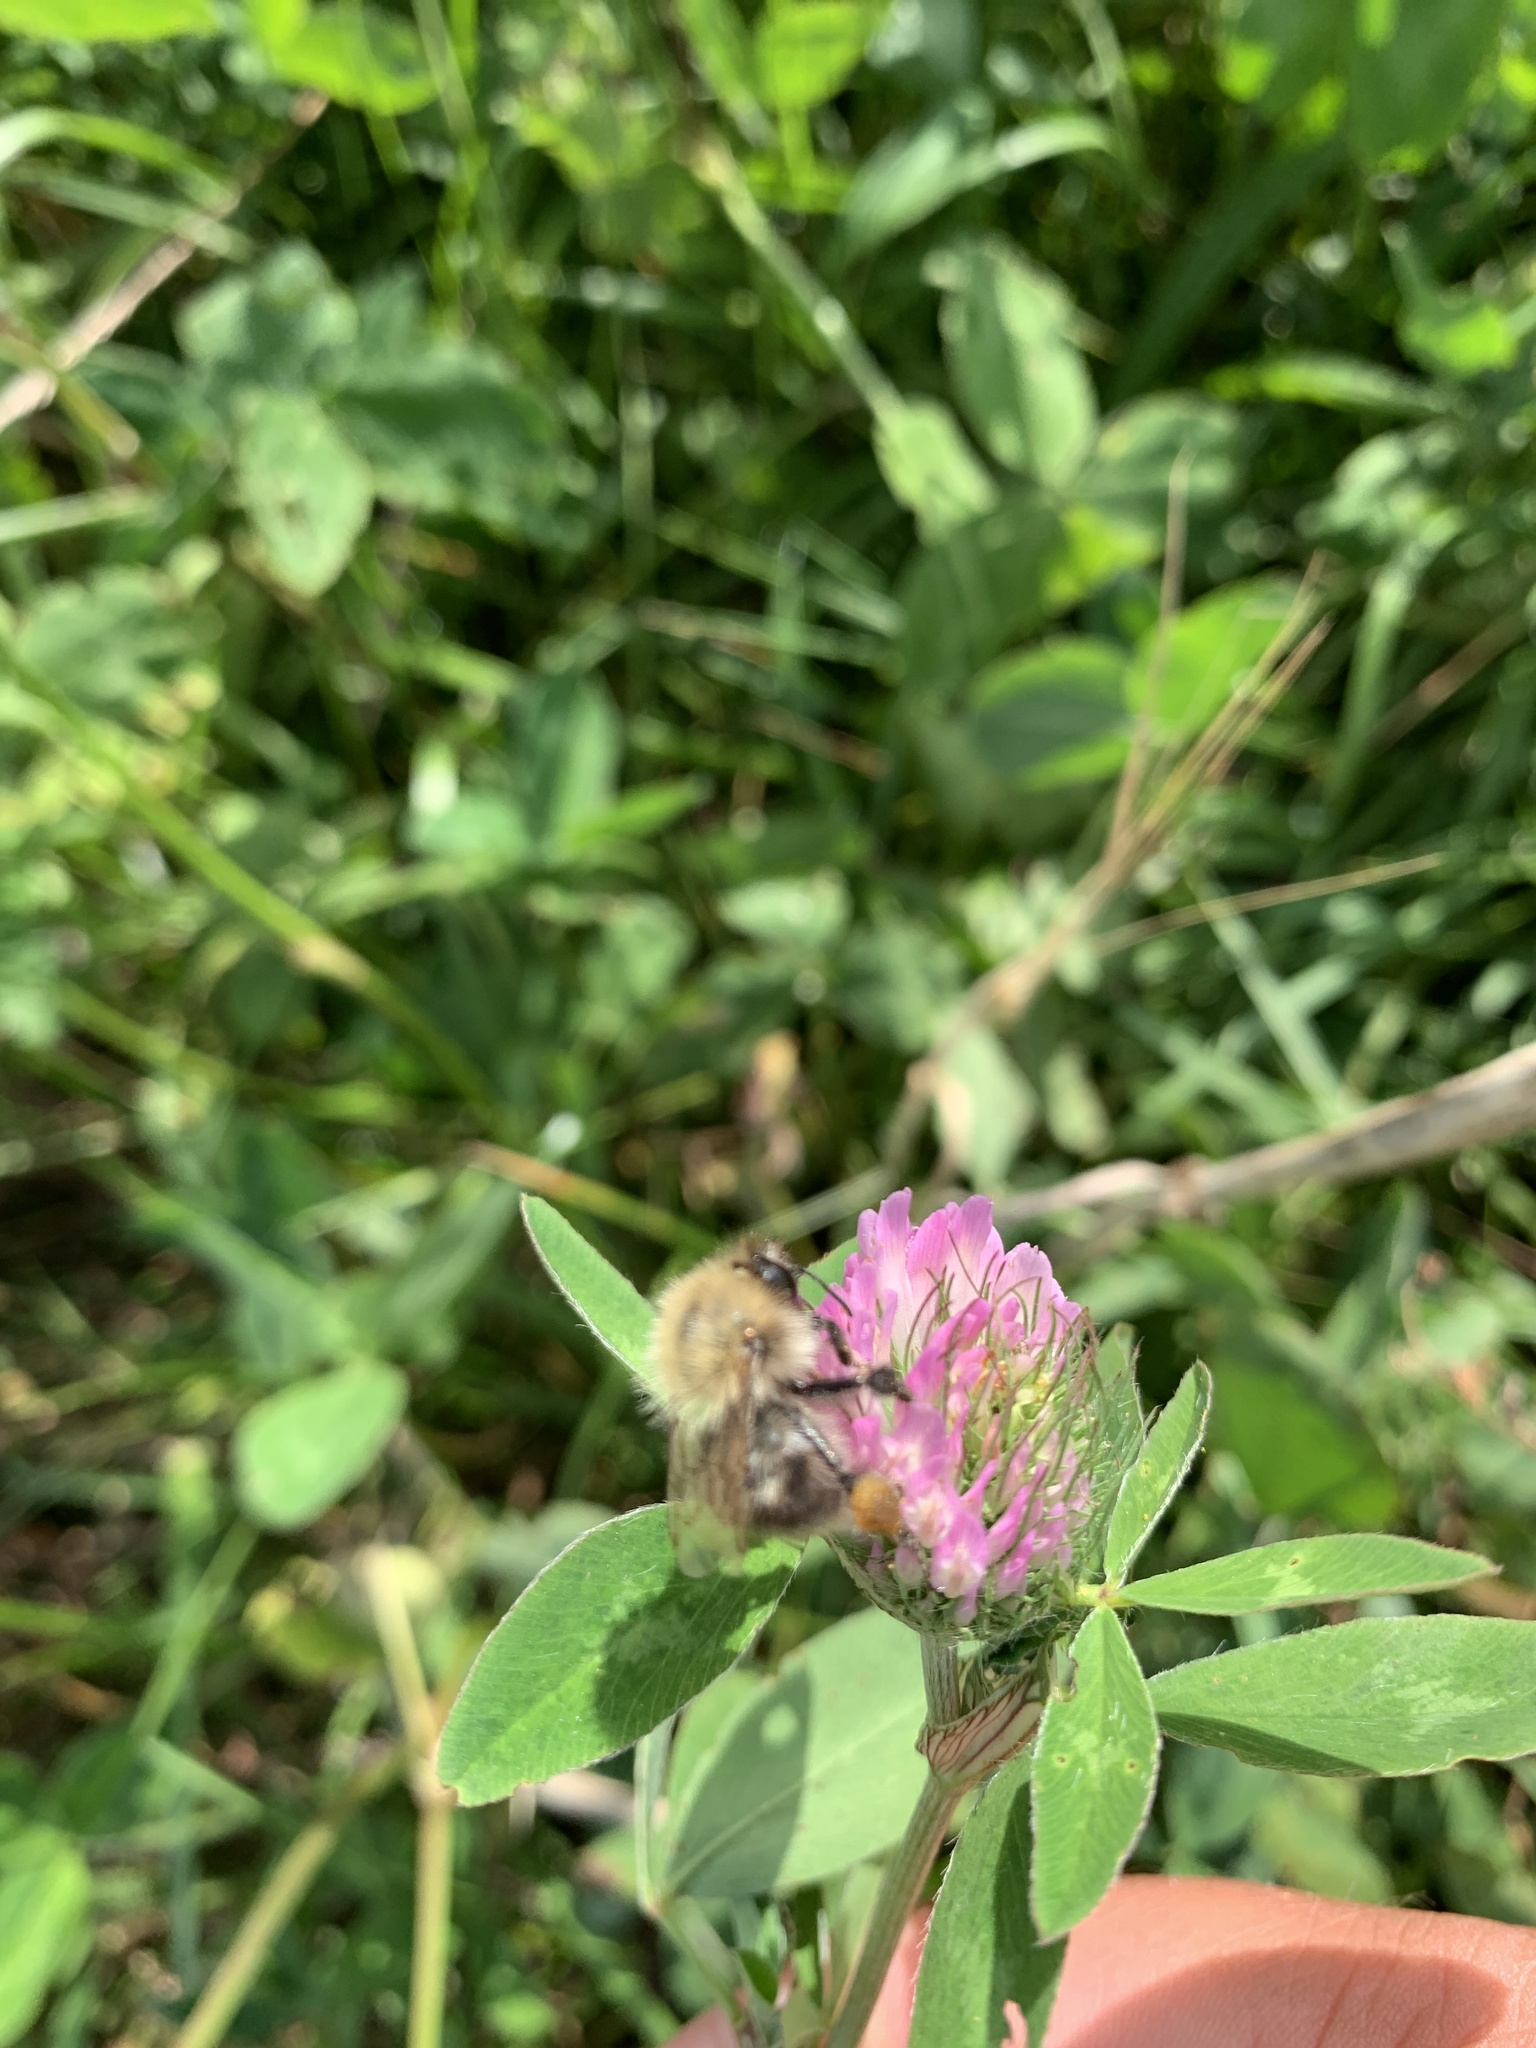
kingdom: Animalia
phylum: Arthropoda
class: Insecta
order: Hymenoptera
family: Apidae
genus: Bombus
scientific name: Bombus pascuorum
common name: Common carder bee
